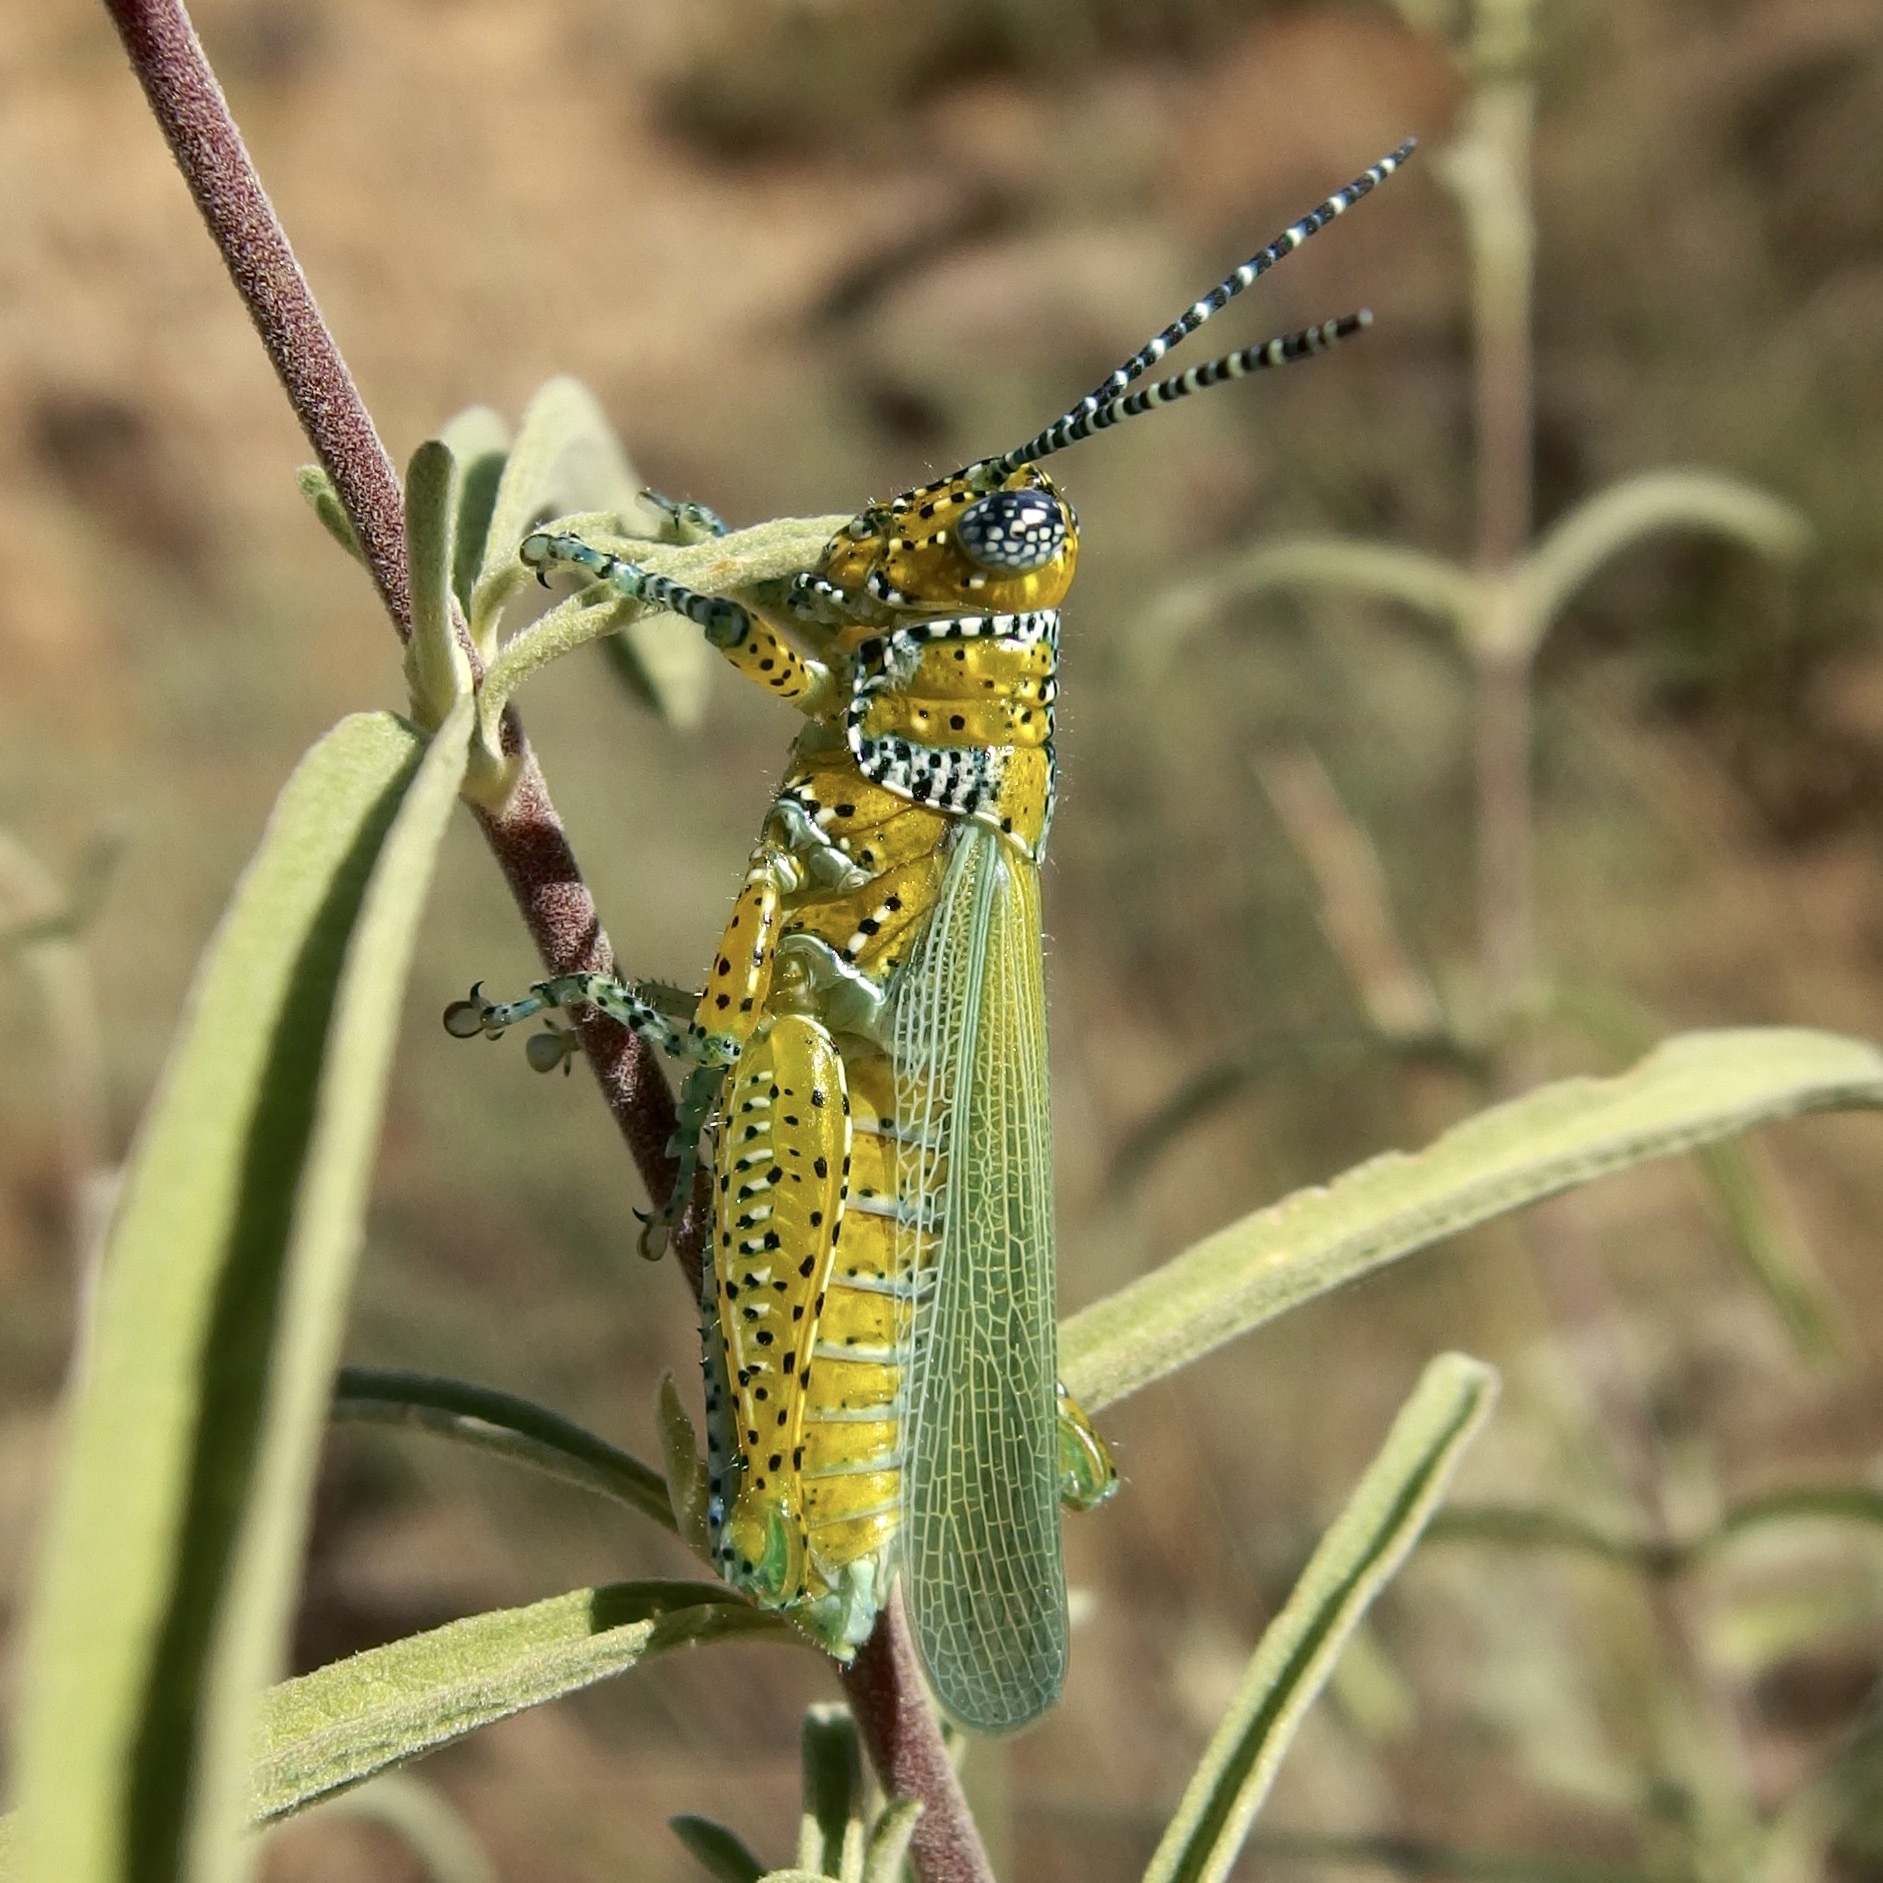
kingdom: Animalia
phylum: Arthropoda
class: Insecta
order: Orthoptera
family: Acrididae
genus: Poecilotettix
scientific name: Poecilotettix pantherinus
